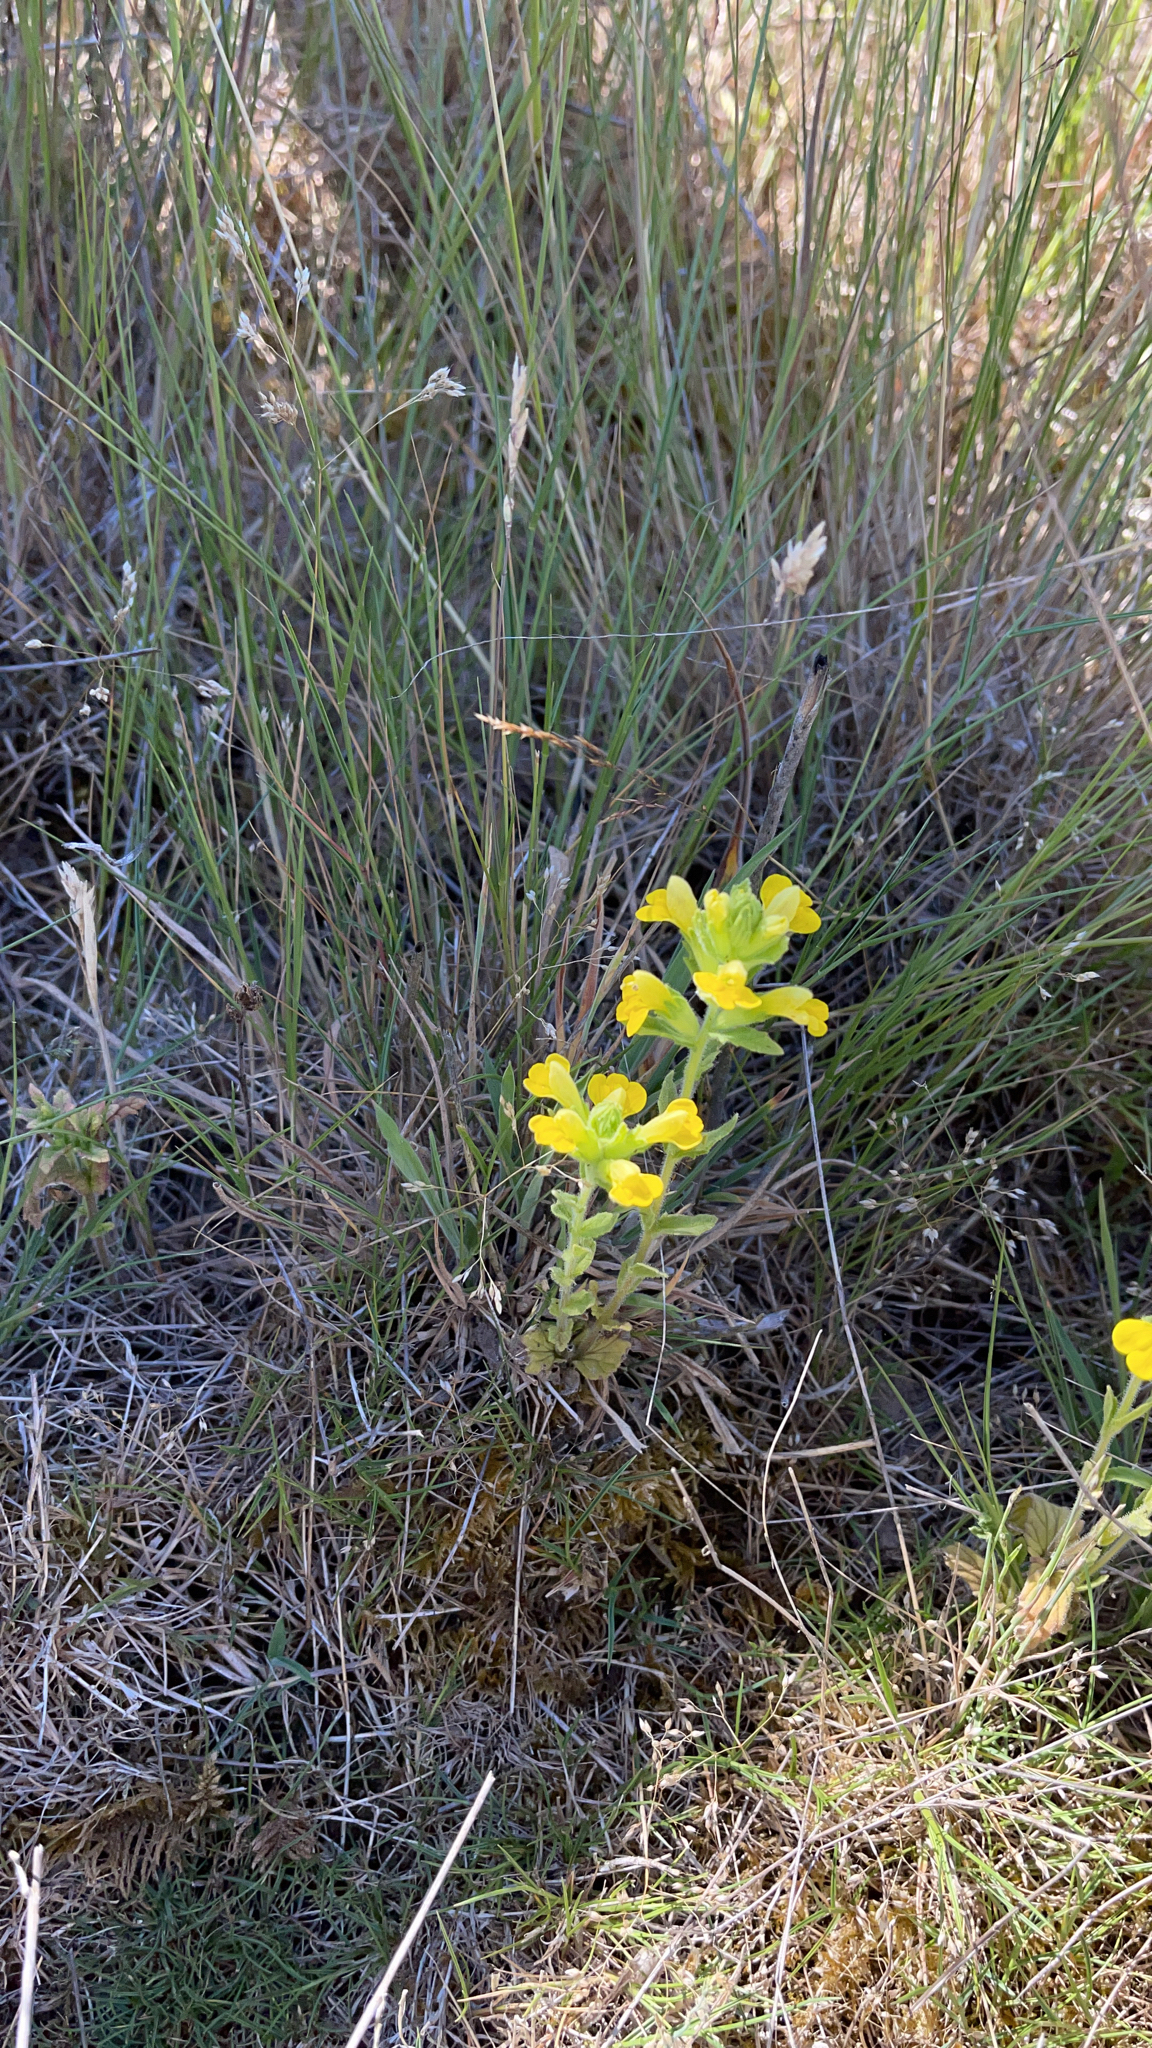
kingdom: Plantae
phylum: Tracheophyta
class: Magnoliopsida
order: Lamiales
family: Orobanchaceae
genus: Bellardia
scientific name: Bellardia viscosa
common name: Sticky parentucellia
